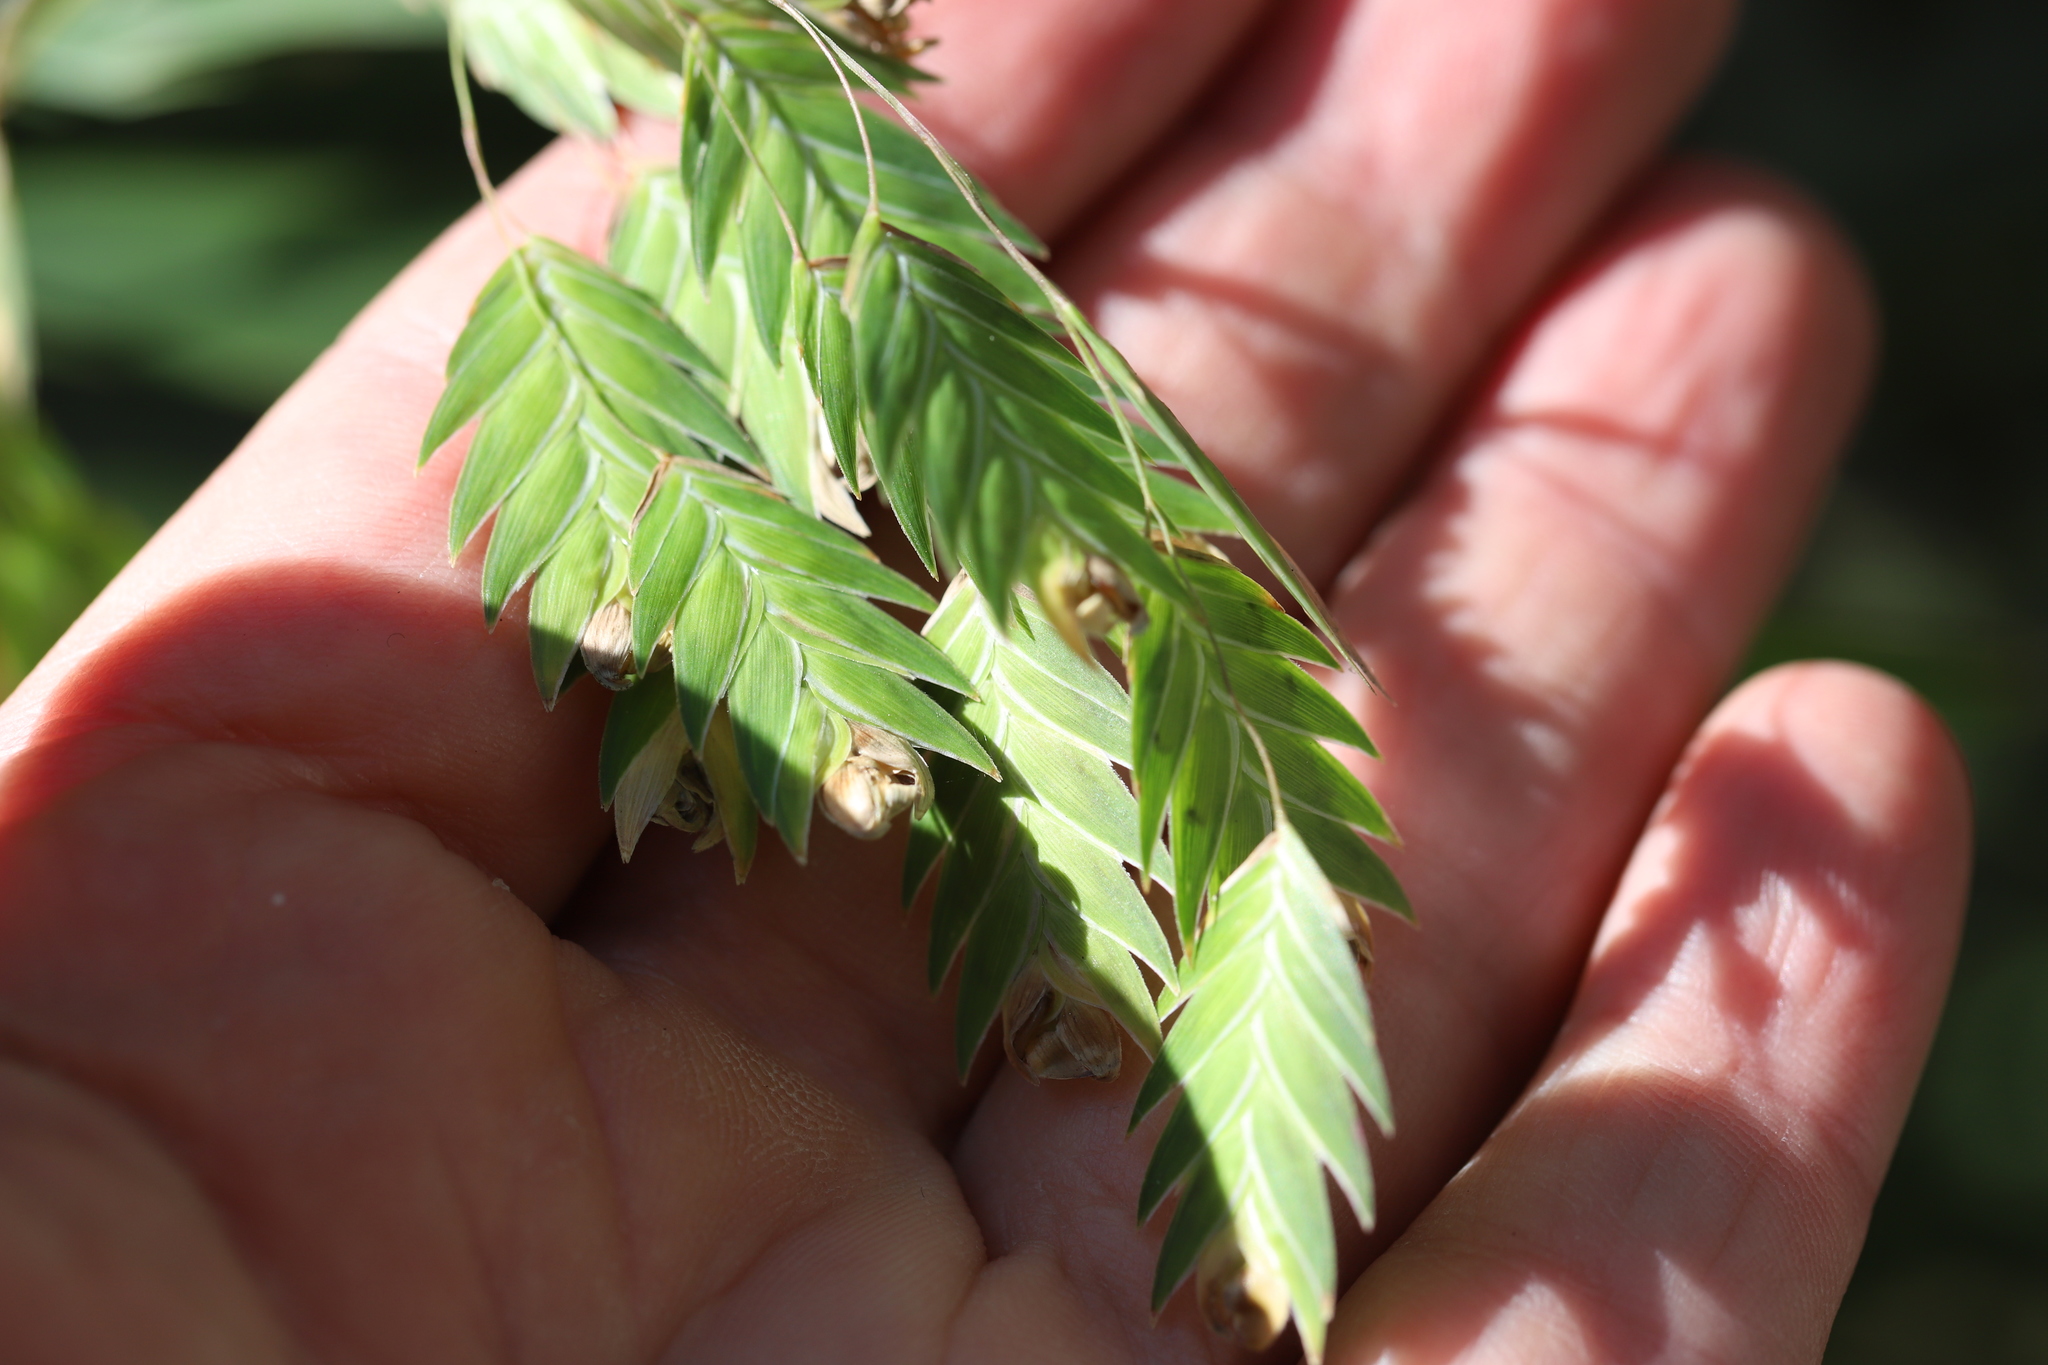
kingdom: Plantae
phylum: Tracheophyta
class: Liliopsida
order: Poales
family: Poaceae
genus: Chasmanthium
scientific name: Chasmanthium latifolium
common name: Broad-leaved chasmanthium
